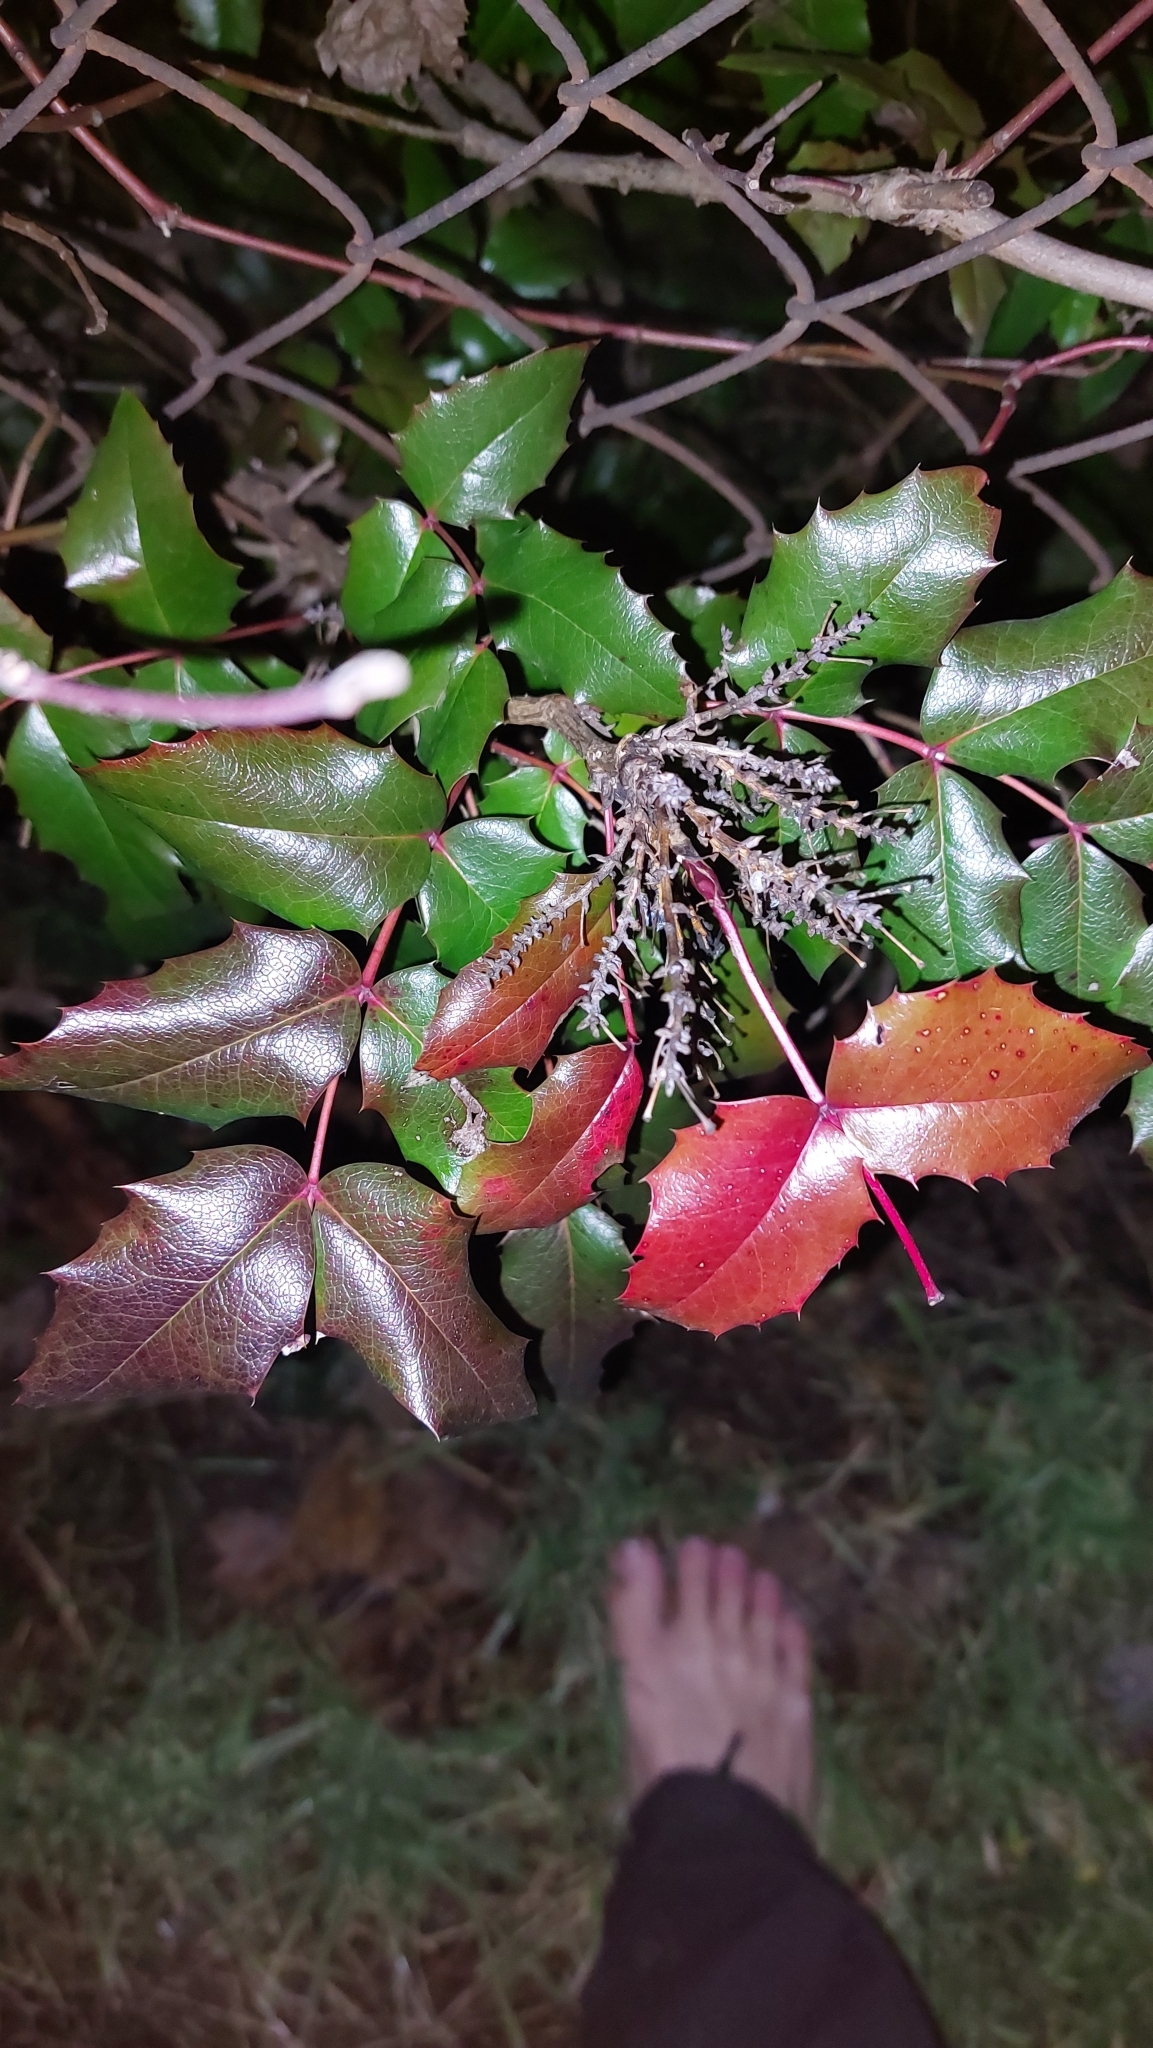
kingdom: Plantae
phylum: Tracheophyta
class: Magnoliopsida
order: Ranunculales
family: Berberidaceae
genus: Mahonia
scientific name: Mahonia aquifolium
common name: Oregon-grape
